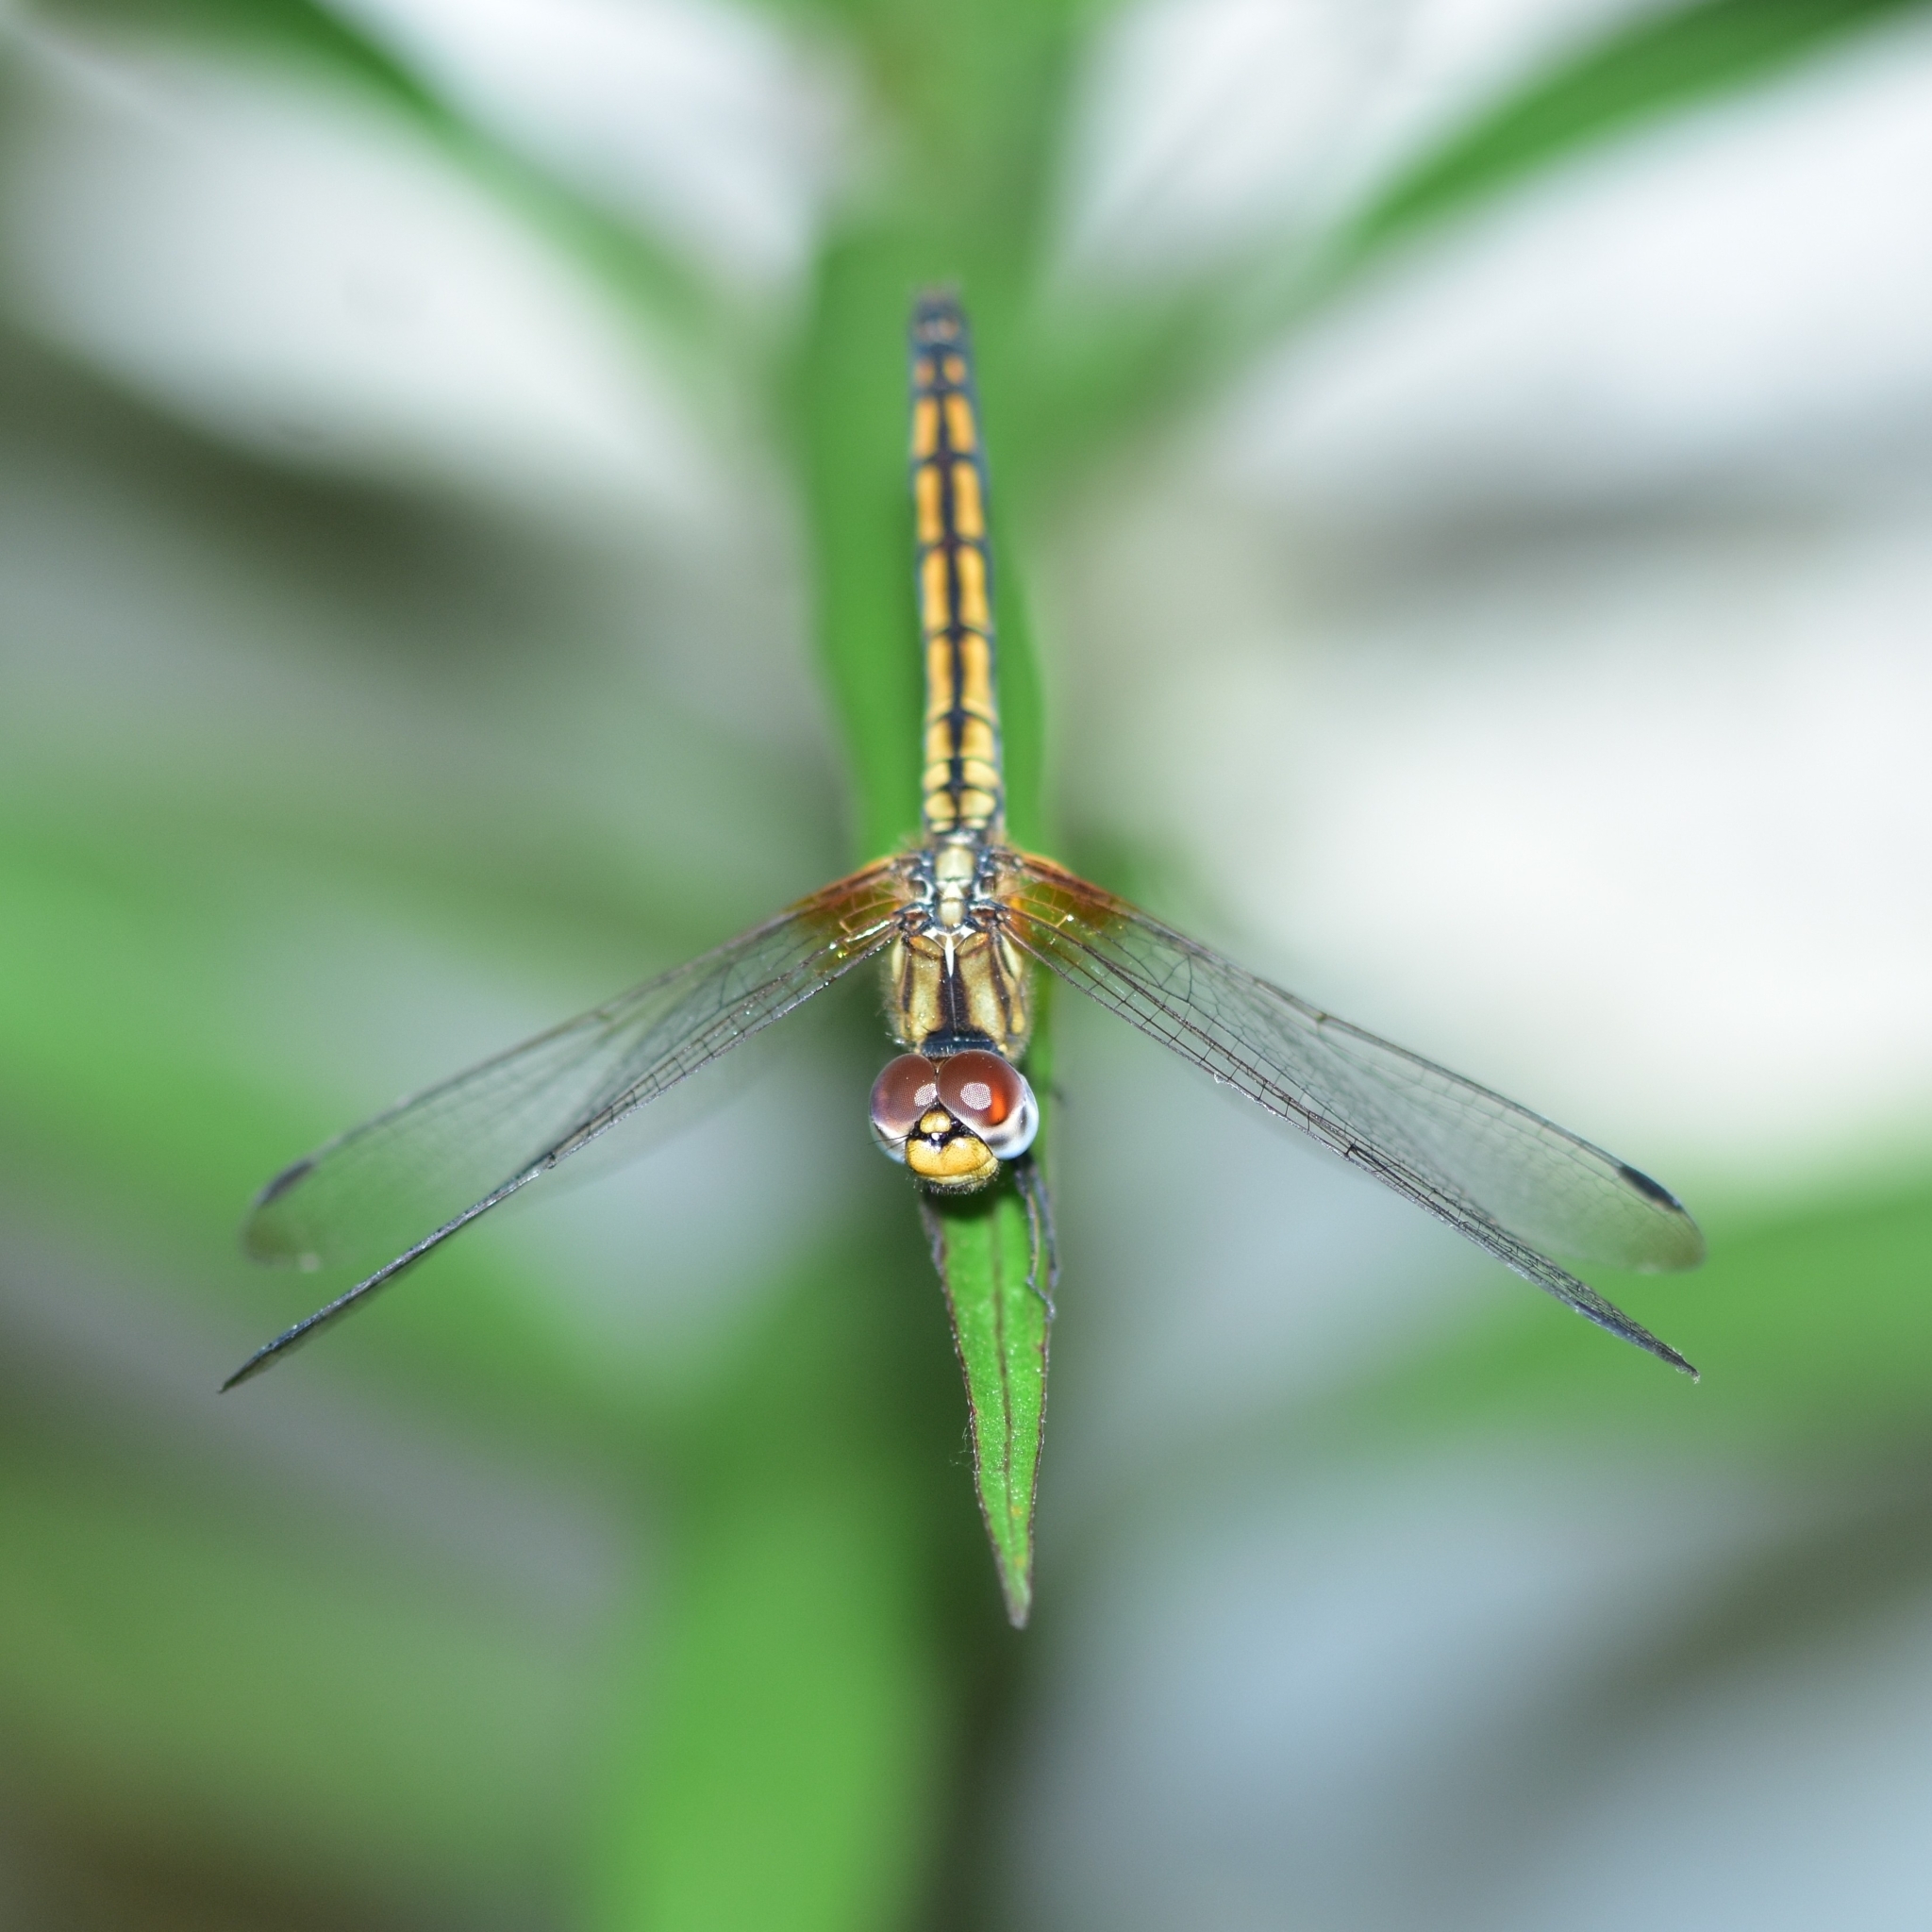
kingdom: Animalia
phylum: Arthropoda
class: Insecta
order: Odonata
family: Libellulidae
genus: Trithemis
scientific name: Trithemis aurora
